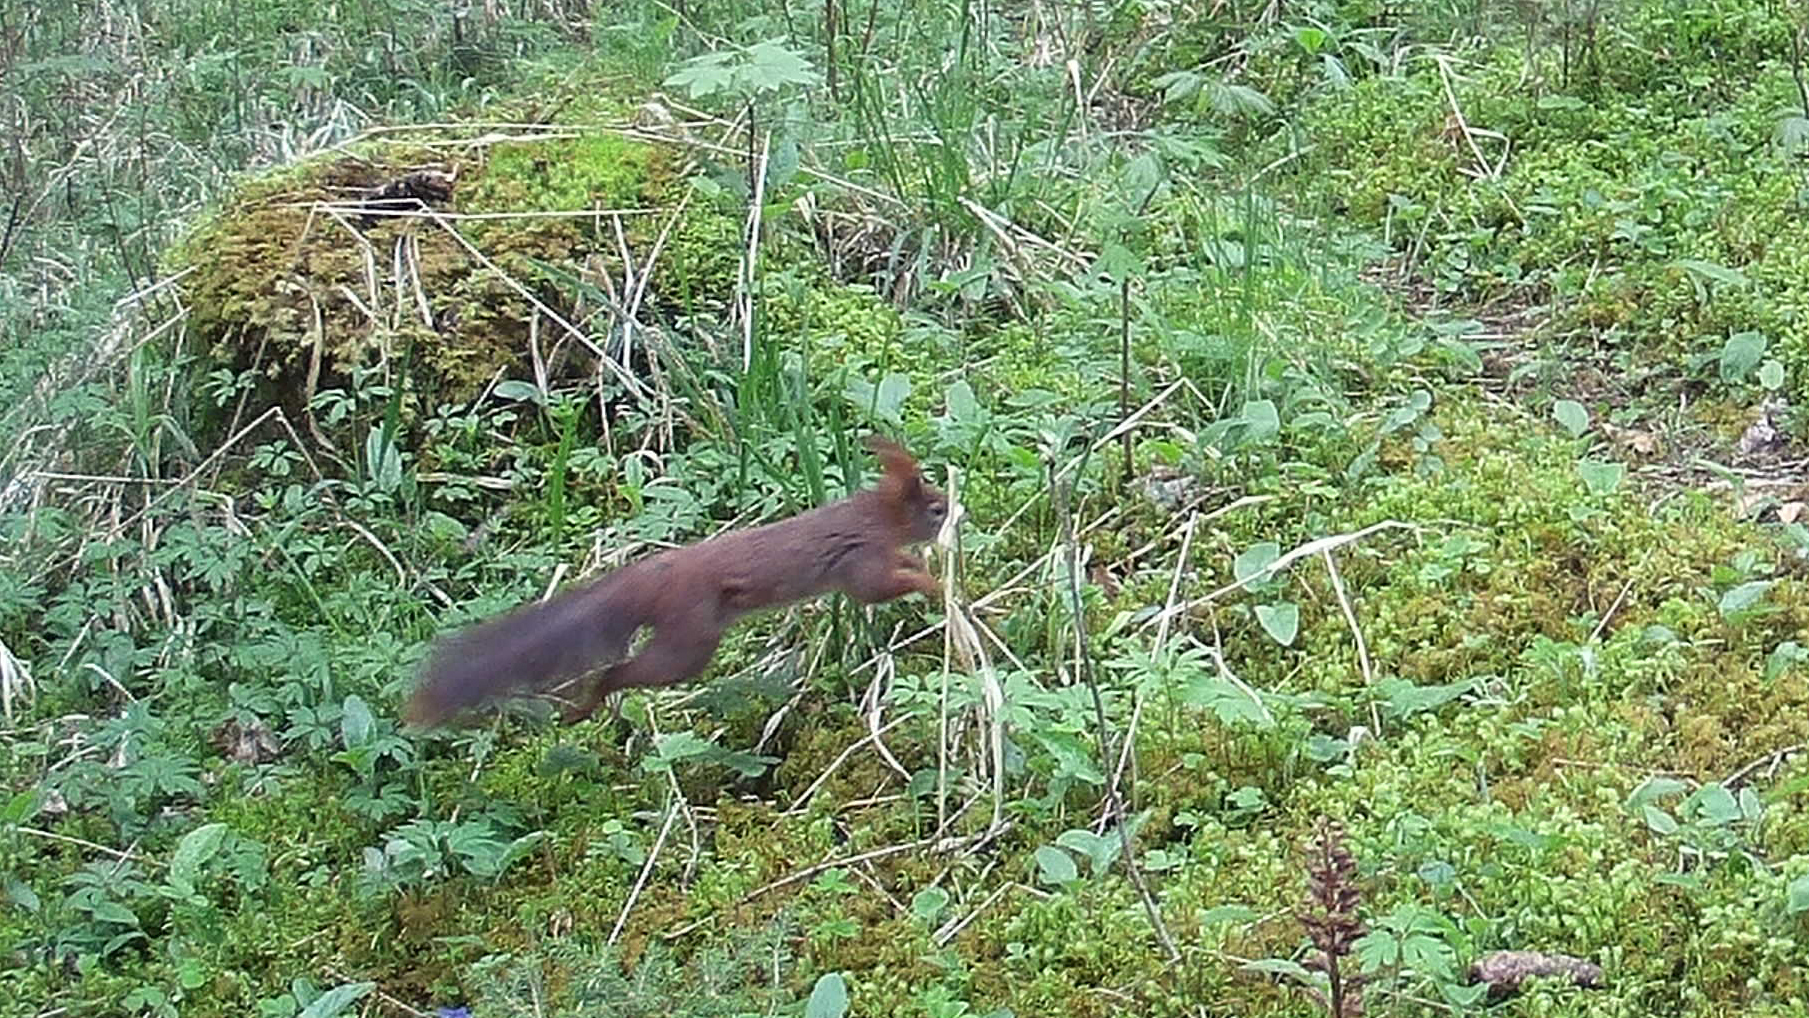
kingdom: Animalia
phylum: Chordata
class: Mammalia
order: Rodentia
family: Sciuridae
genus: Sciurus
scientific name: Sciurus vulgaris
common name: Eurasian red squirrel
